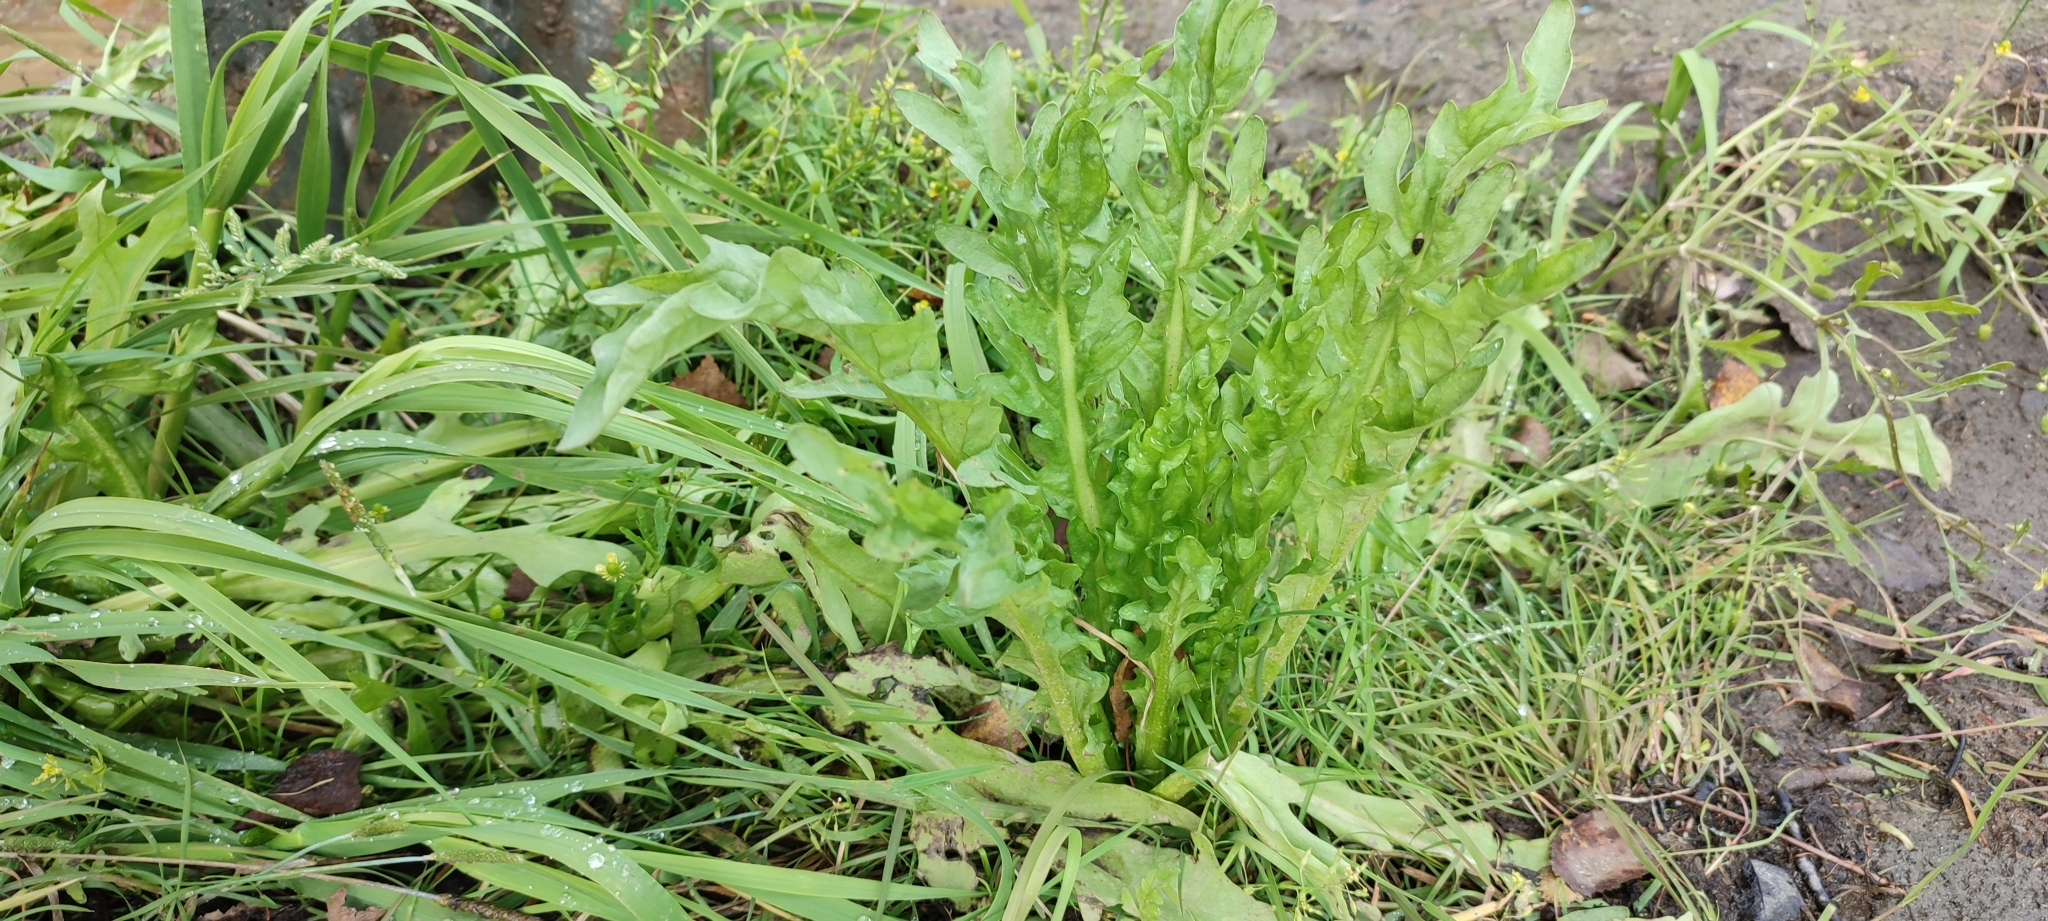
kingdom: Plantae
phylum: Tracheophyta
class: Magnoliopsida
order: Asterales
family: Asteraceae
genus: Tephroseris
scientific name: Tephroseris palustris
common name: Marsh fleawort
